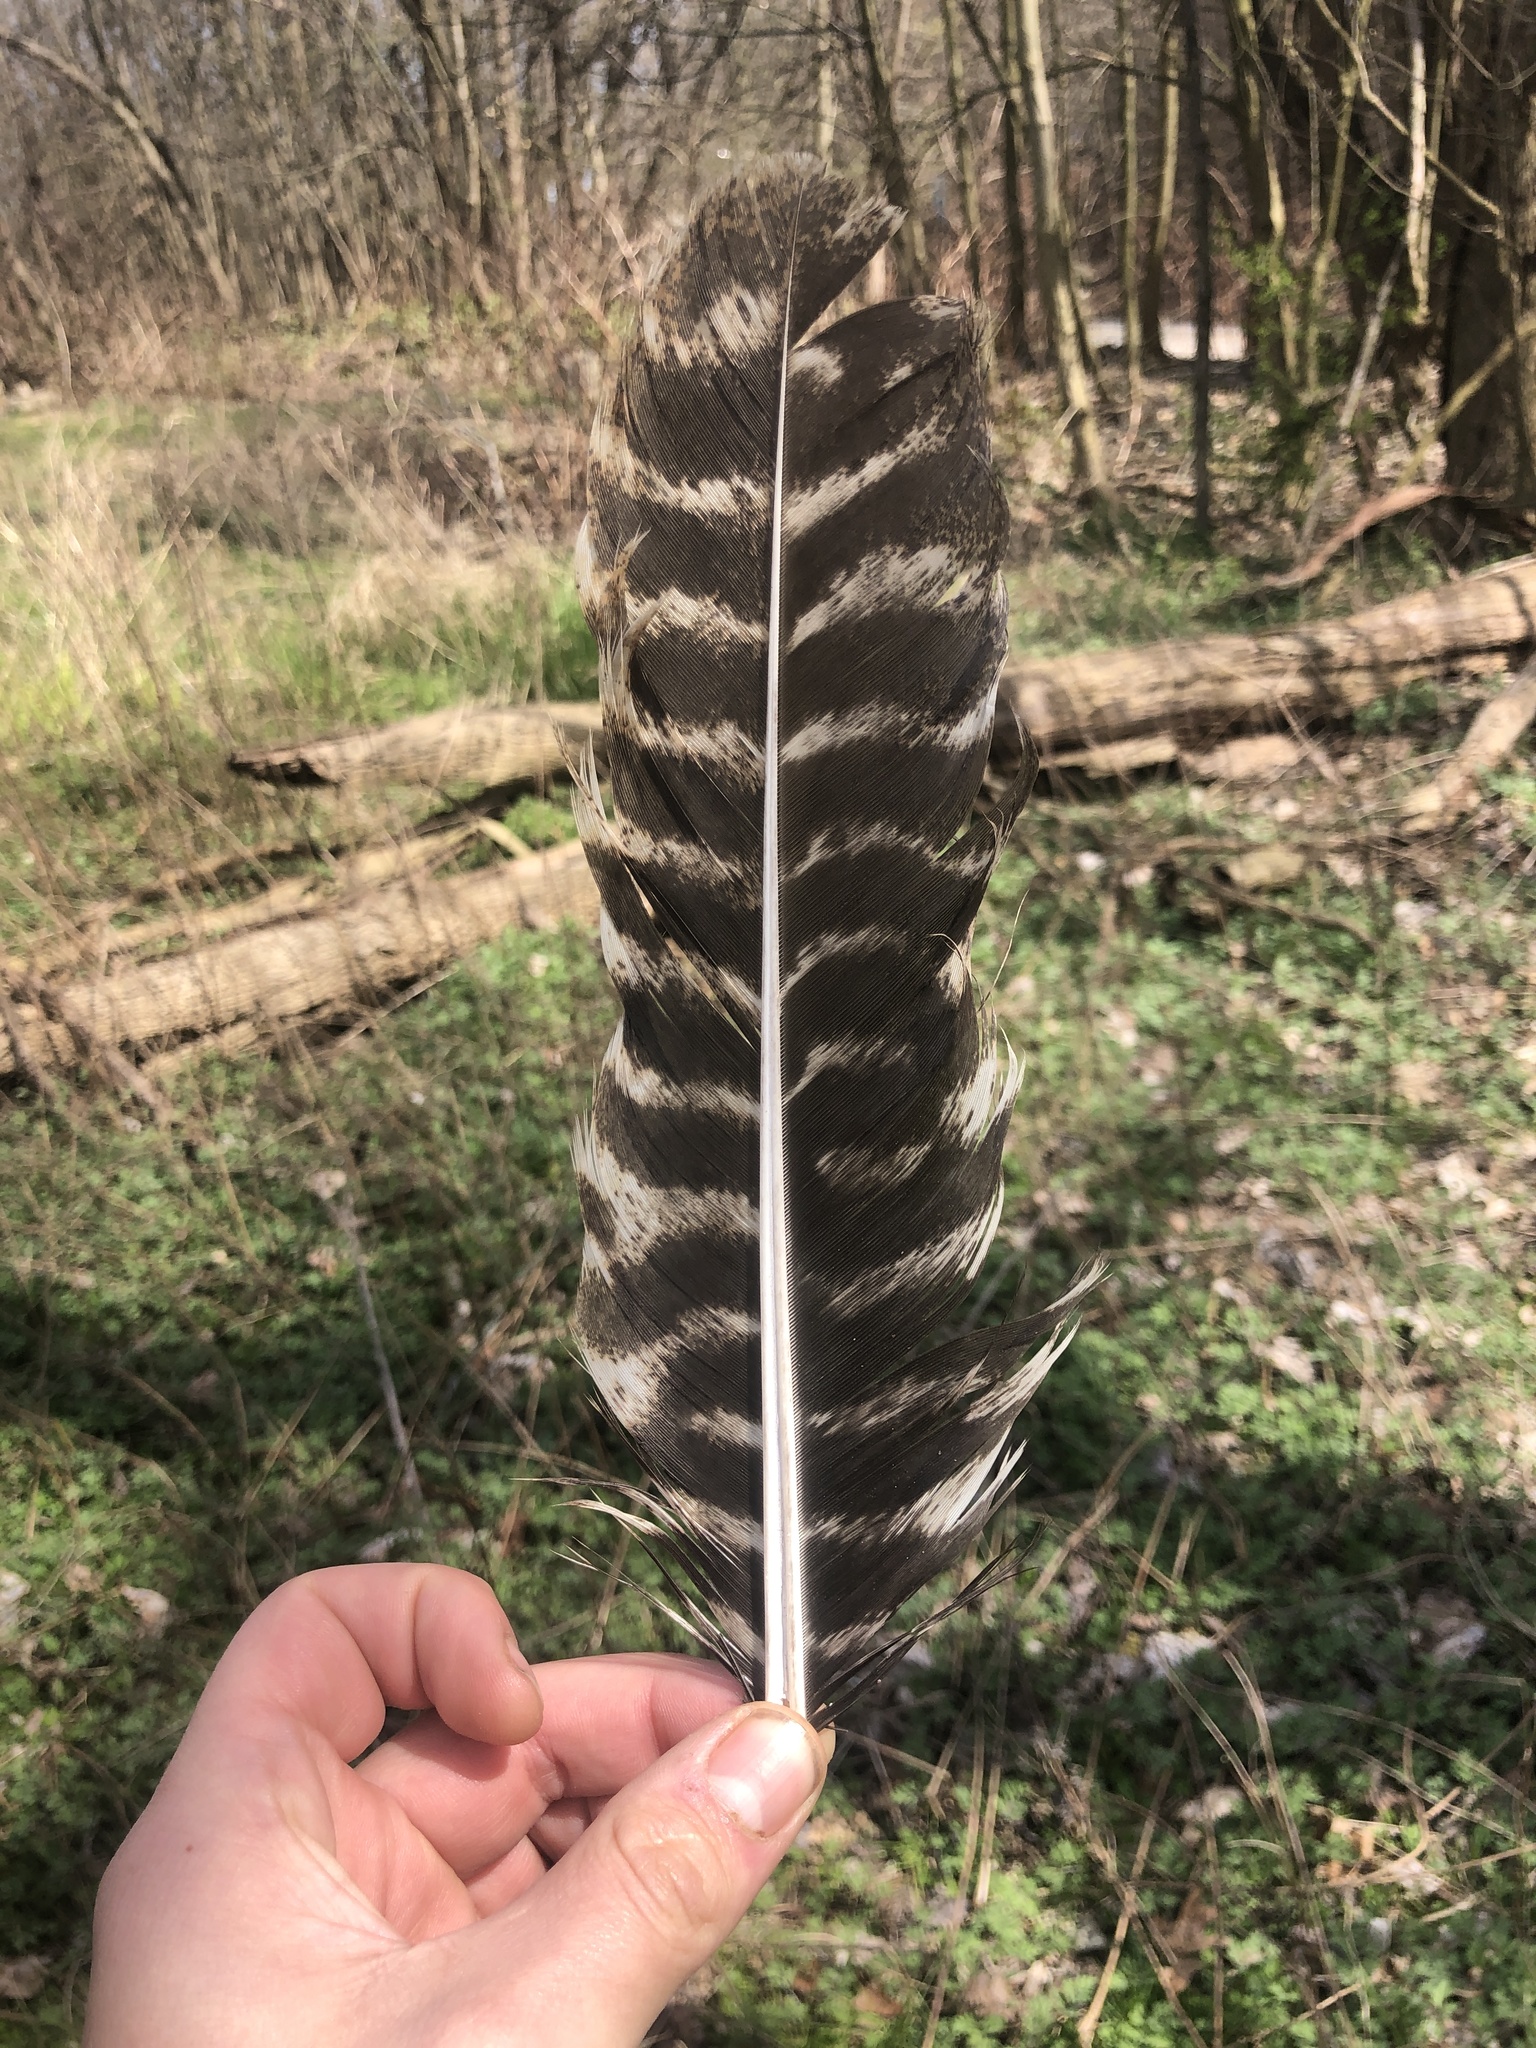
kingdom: Animalia
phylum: Chordata
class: Aves
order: Galliformes
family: Phasianidae
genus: Meleagris
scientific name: Meleagris gallopavo
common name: Wild turkey
